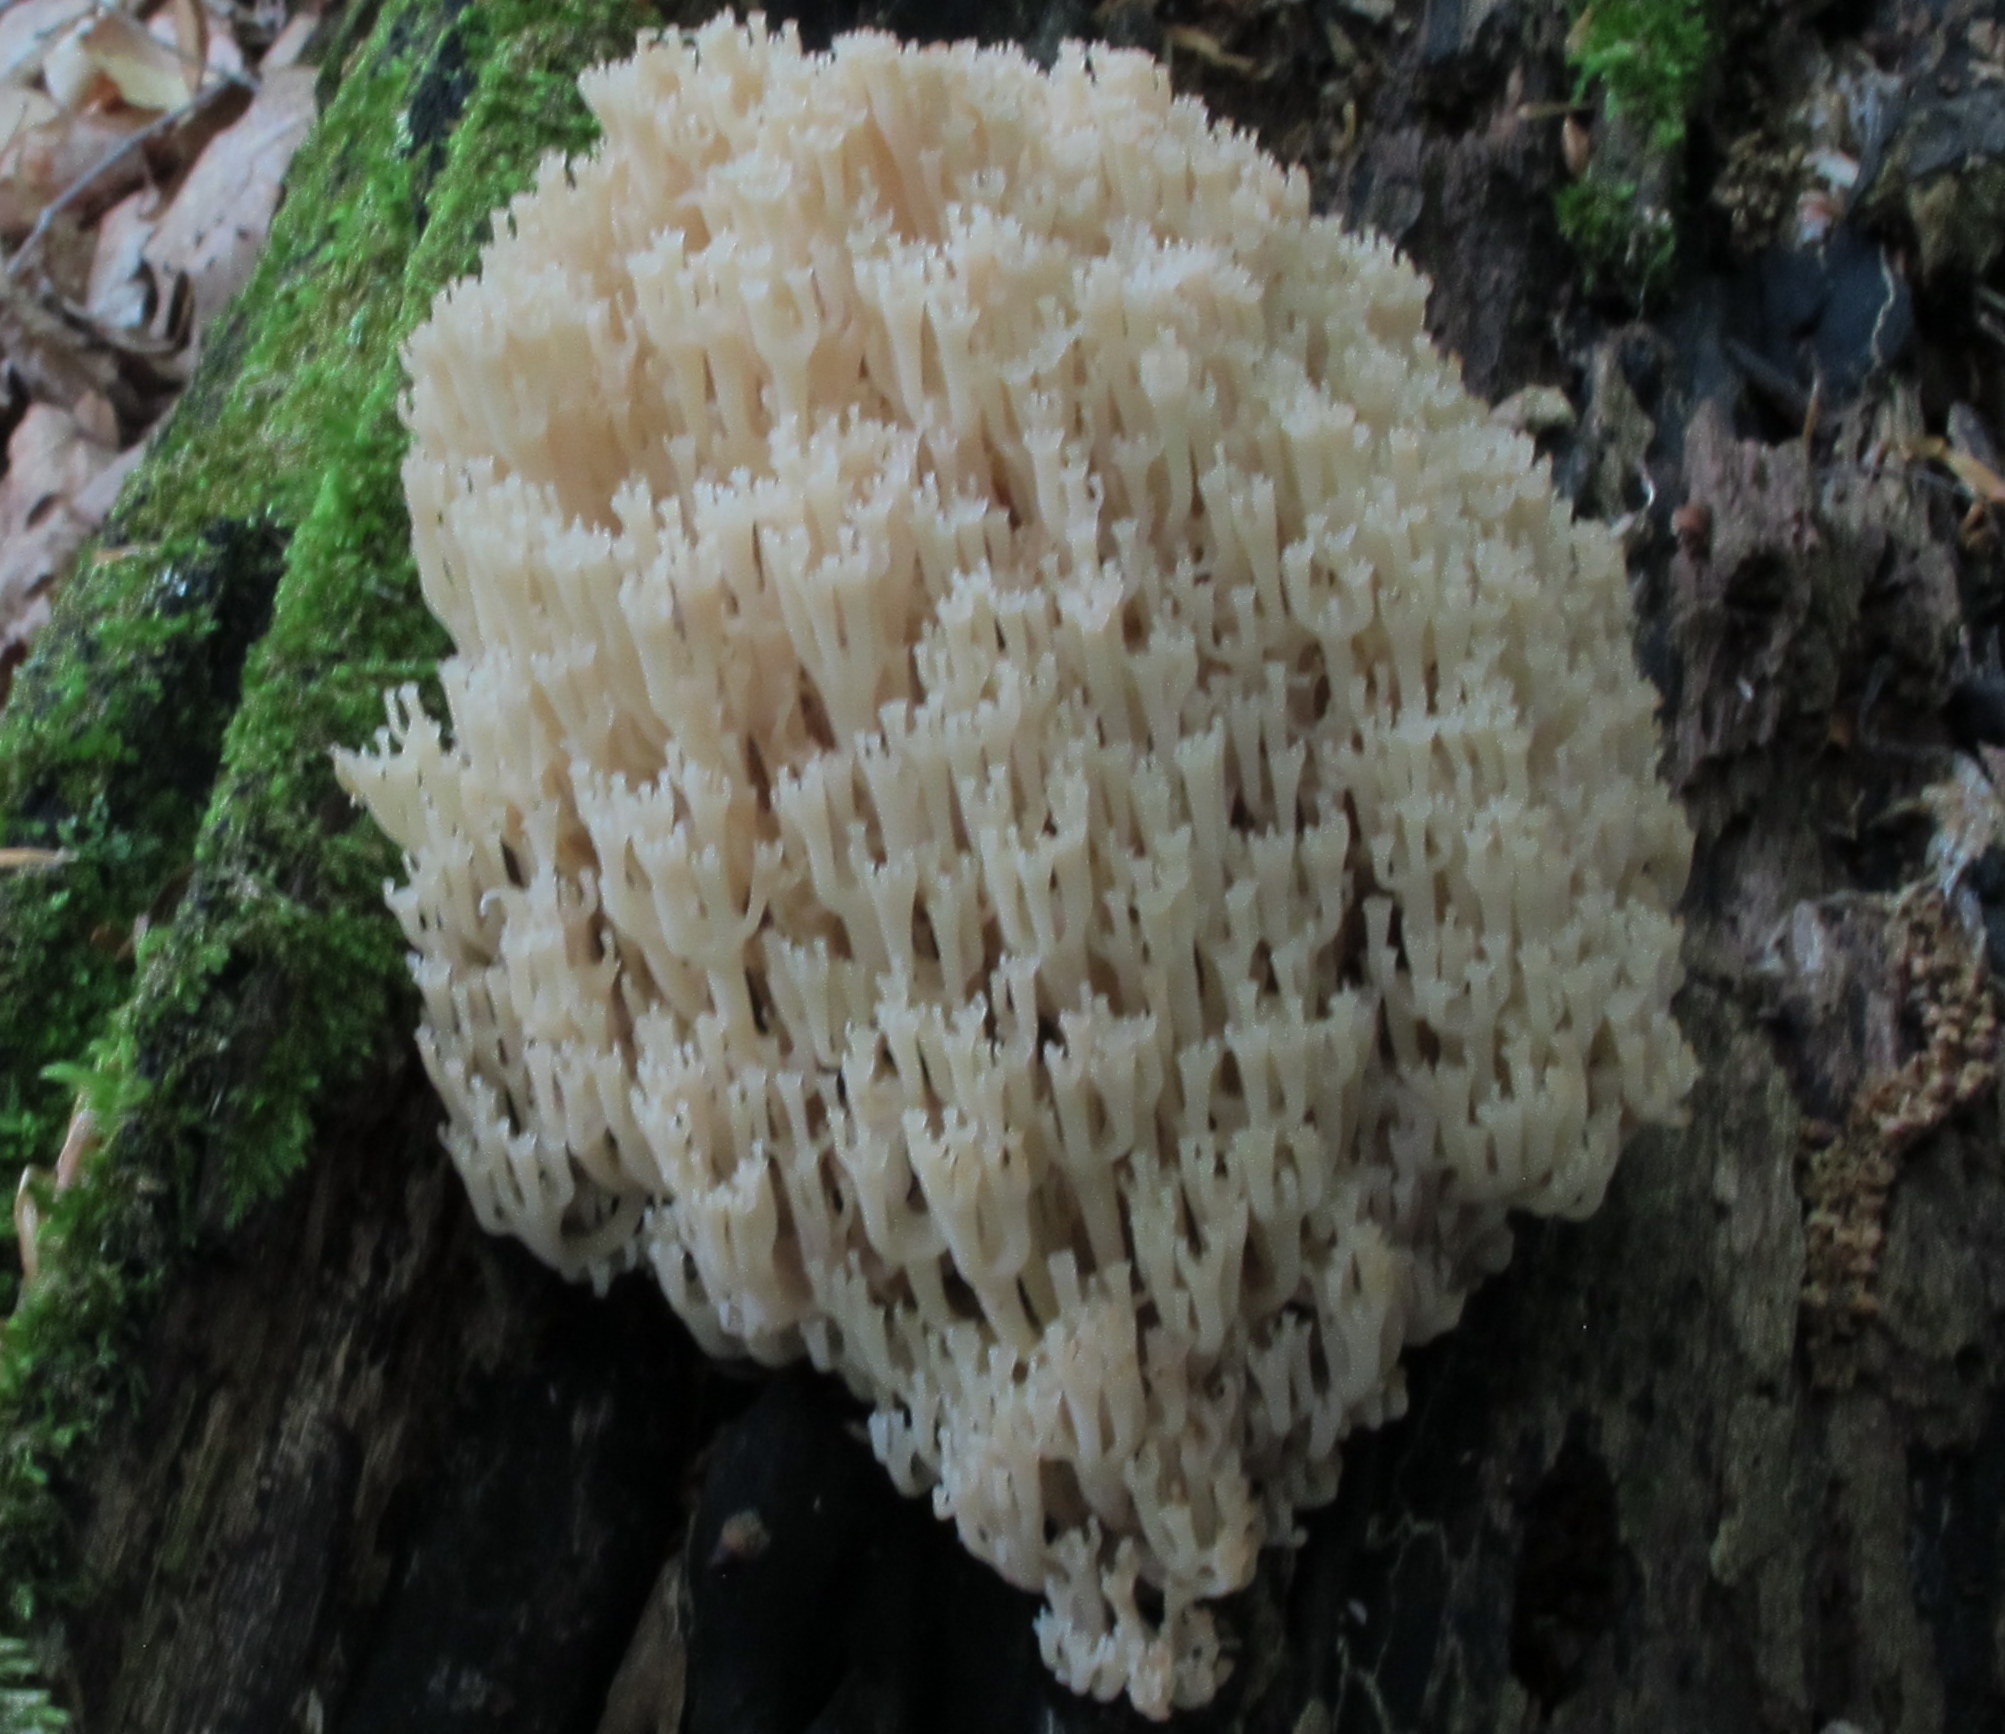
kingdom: Fungi
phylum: Basidiomycota
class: Agaricomycetes
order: Russulales
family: Auriscalpiaceae
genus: Artomyces
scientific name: Artomyces pyxidatus
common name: Crown-tipped coral fungus
